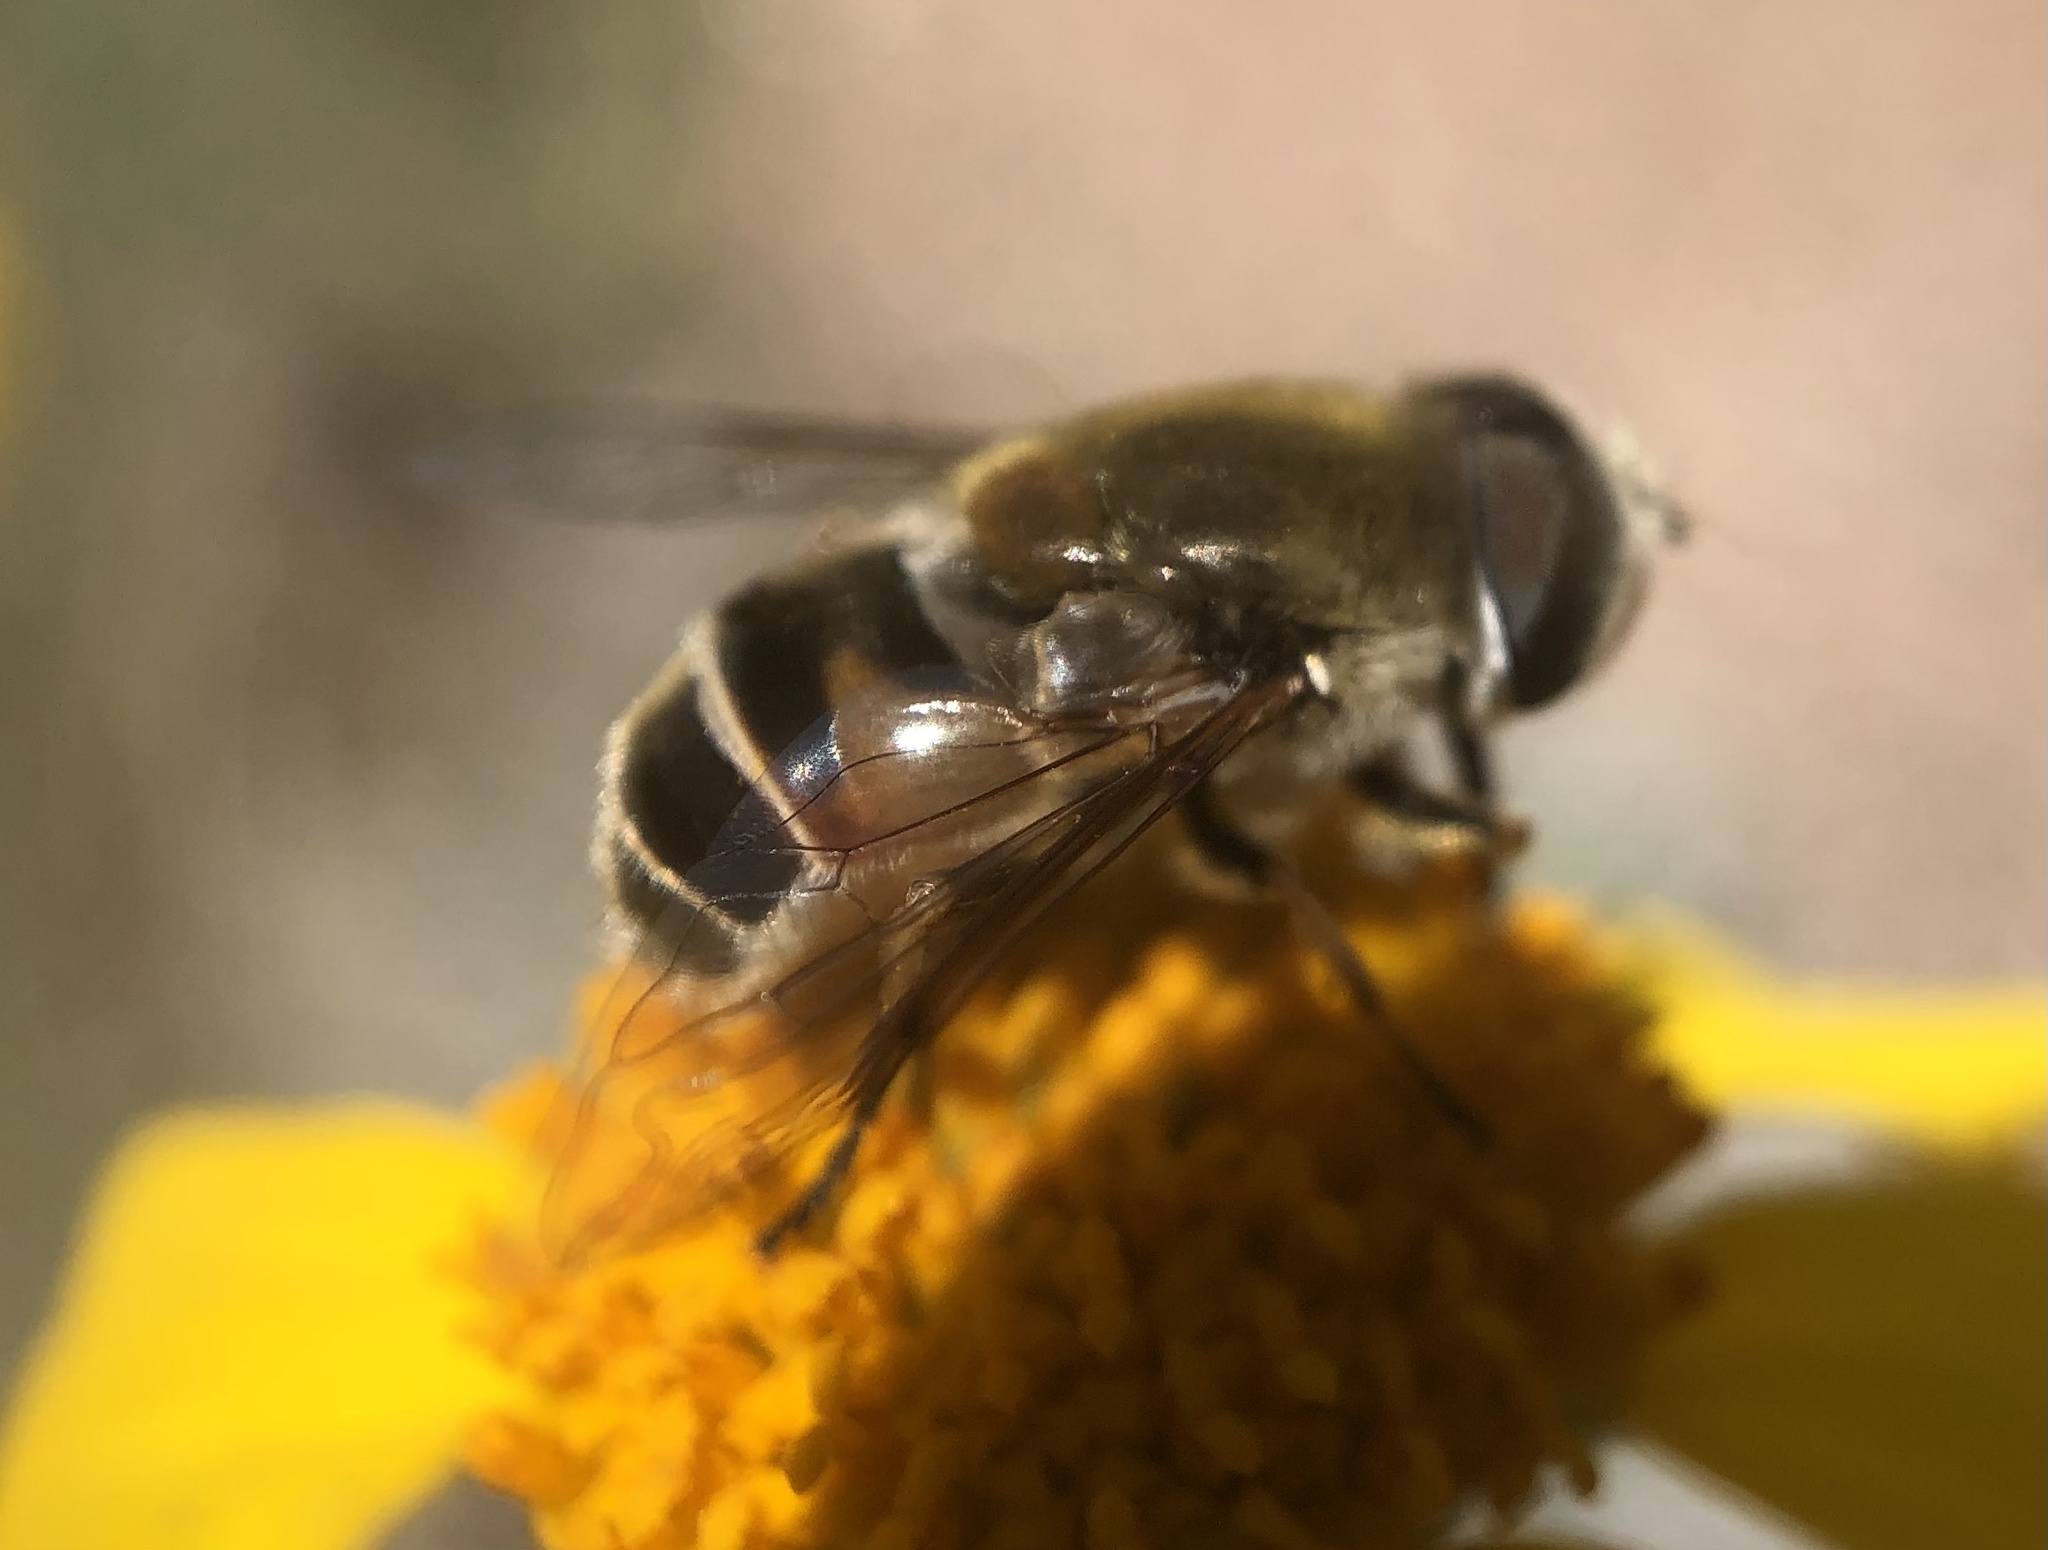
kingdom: Animalia
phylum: Arthropoda
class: Insecta
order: Diptera
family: Syrphidae
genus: Eristalis
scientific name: Eristalis stipator
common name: Yellow-shouldered drone fly
